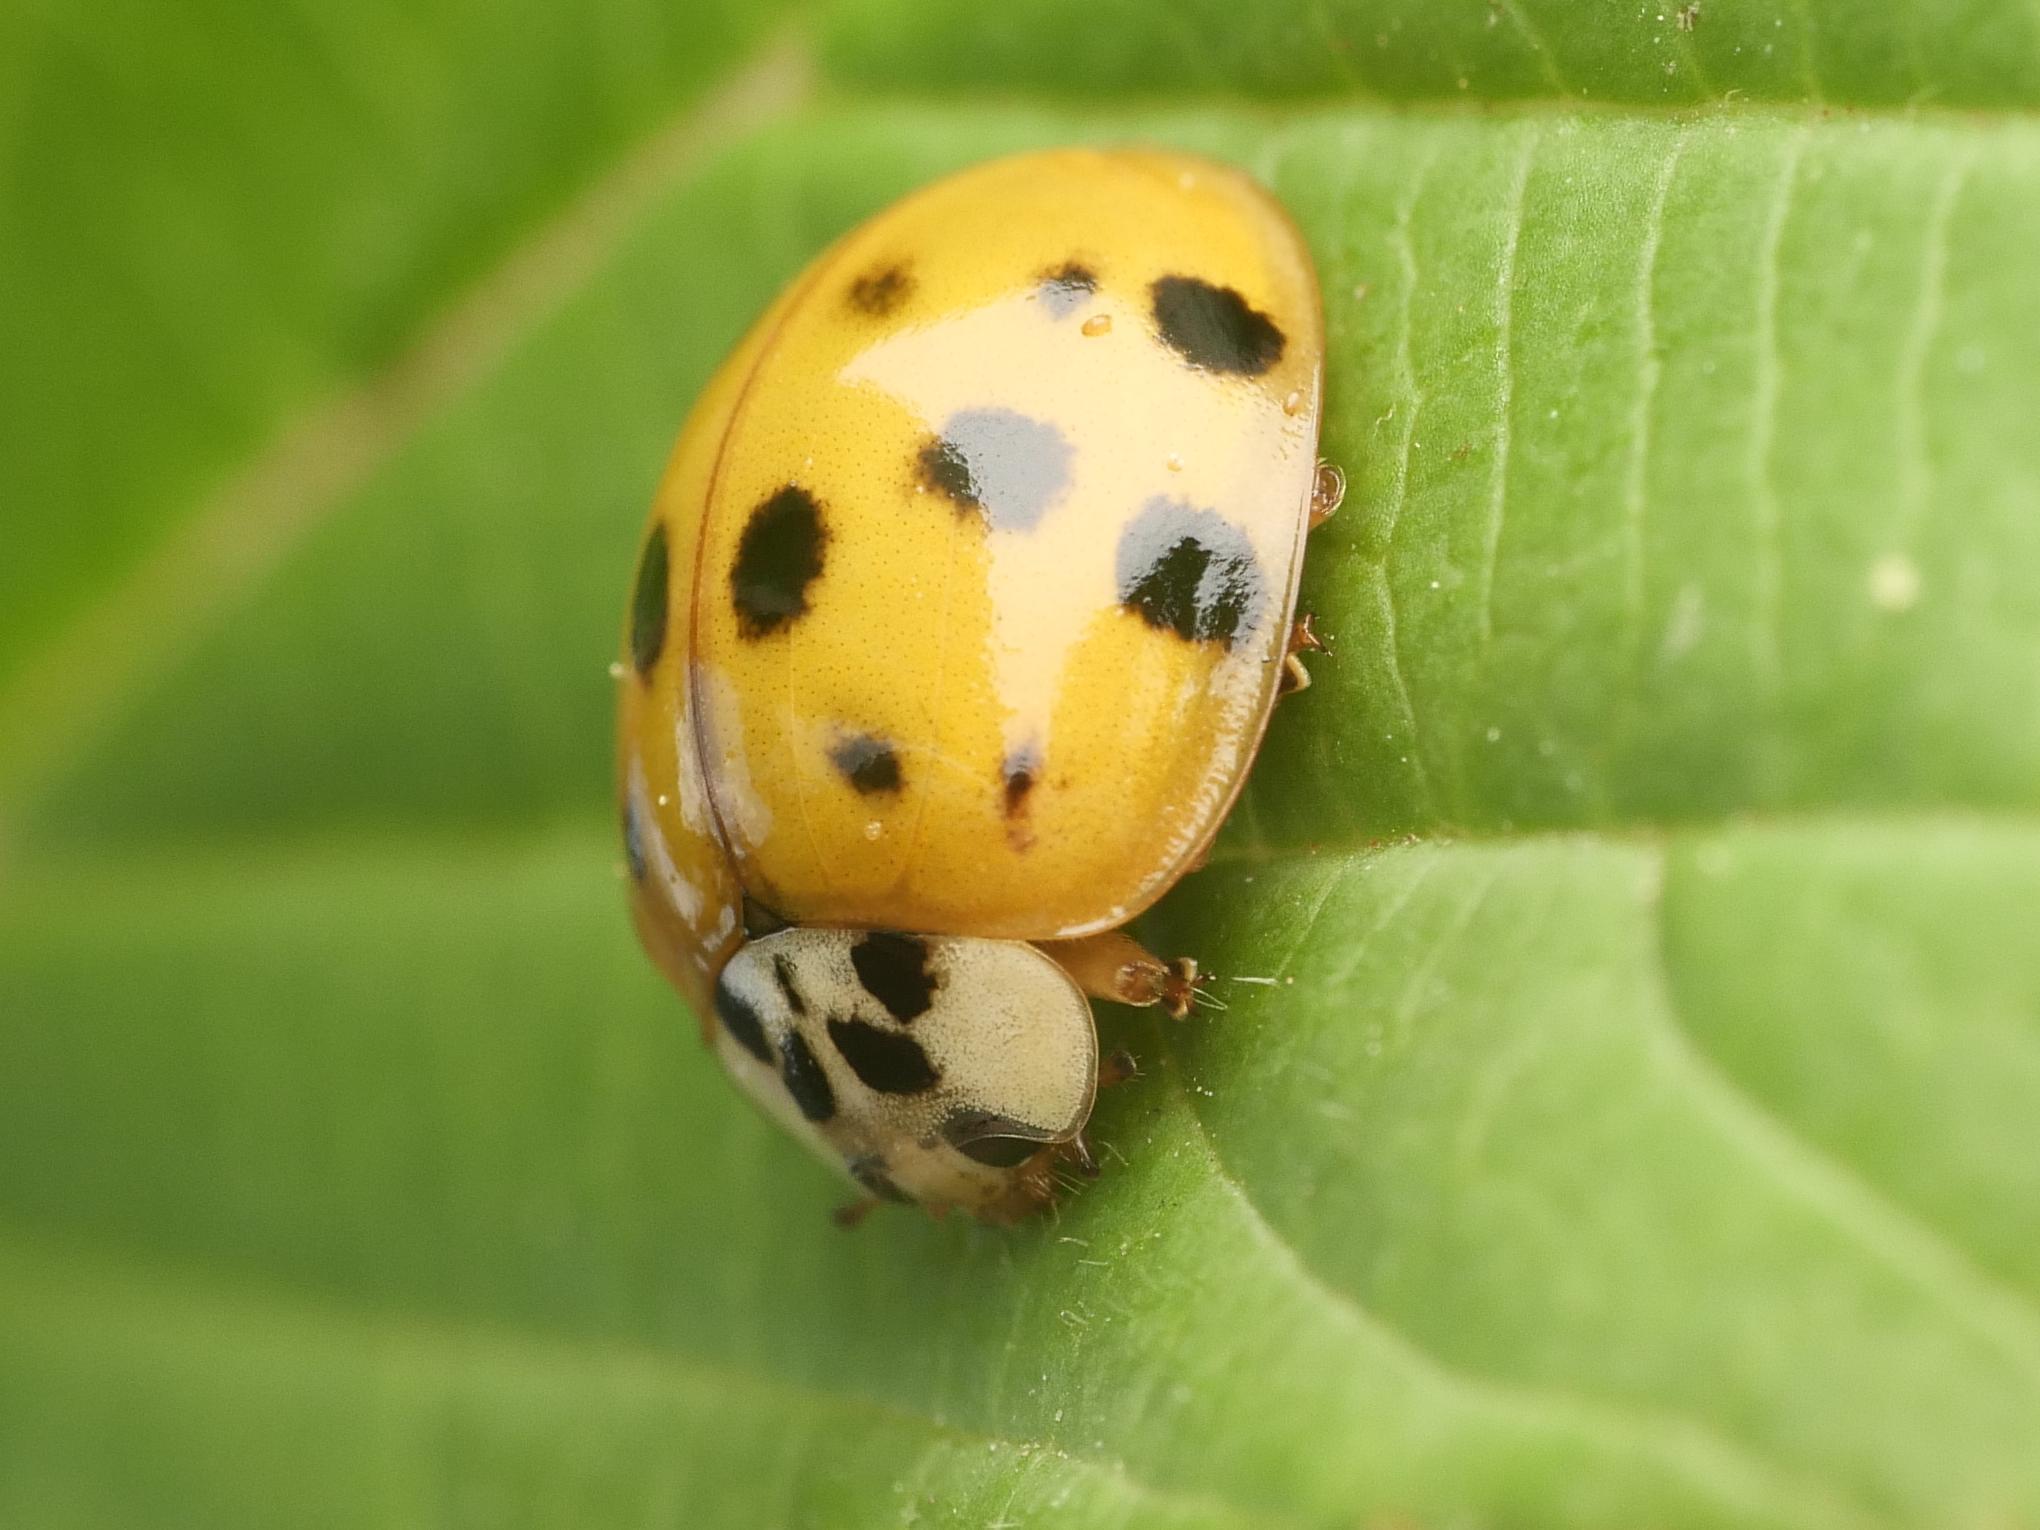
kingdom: Animalia
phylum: Arthropoda
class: Insecta
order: Coleoptera
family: Coccinellidae
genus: Harmonia
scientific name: Harmonia axyridis
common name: Harlequin ladybird
